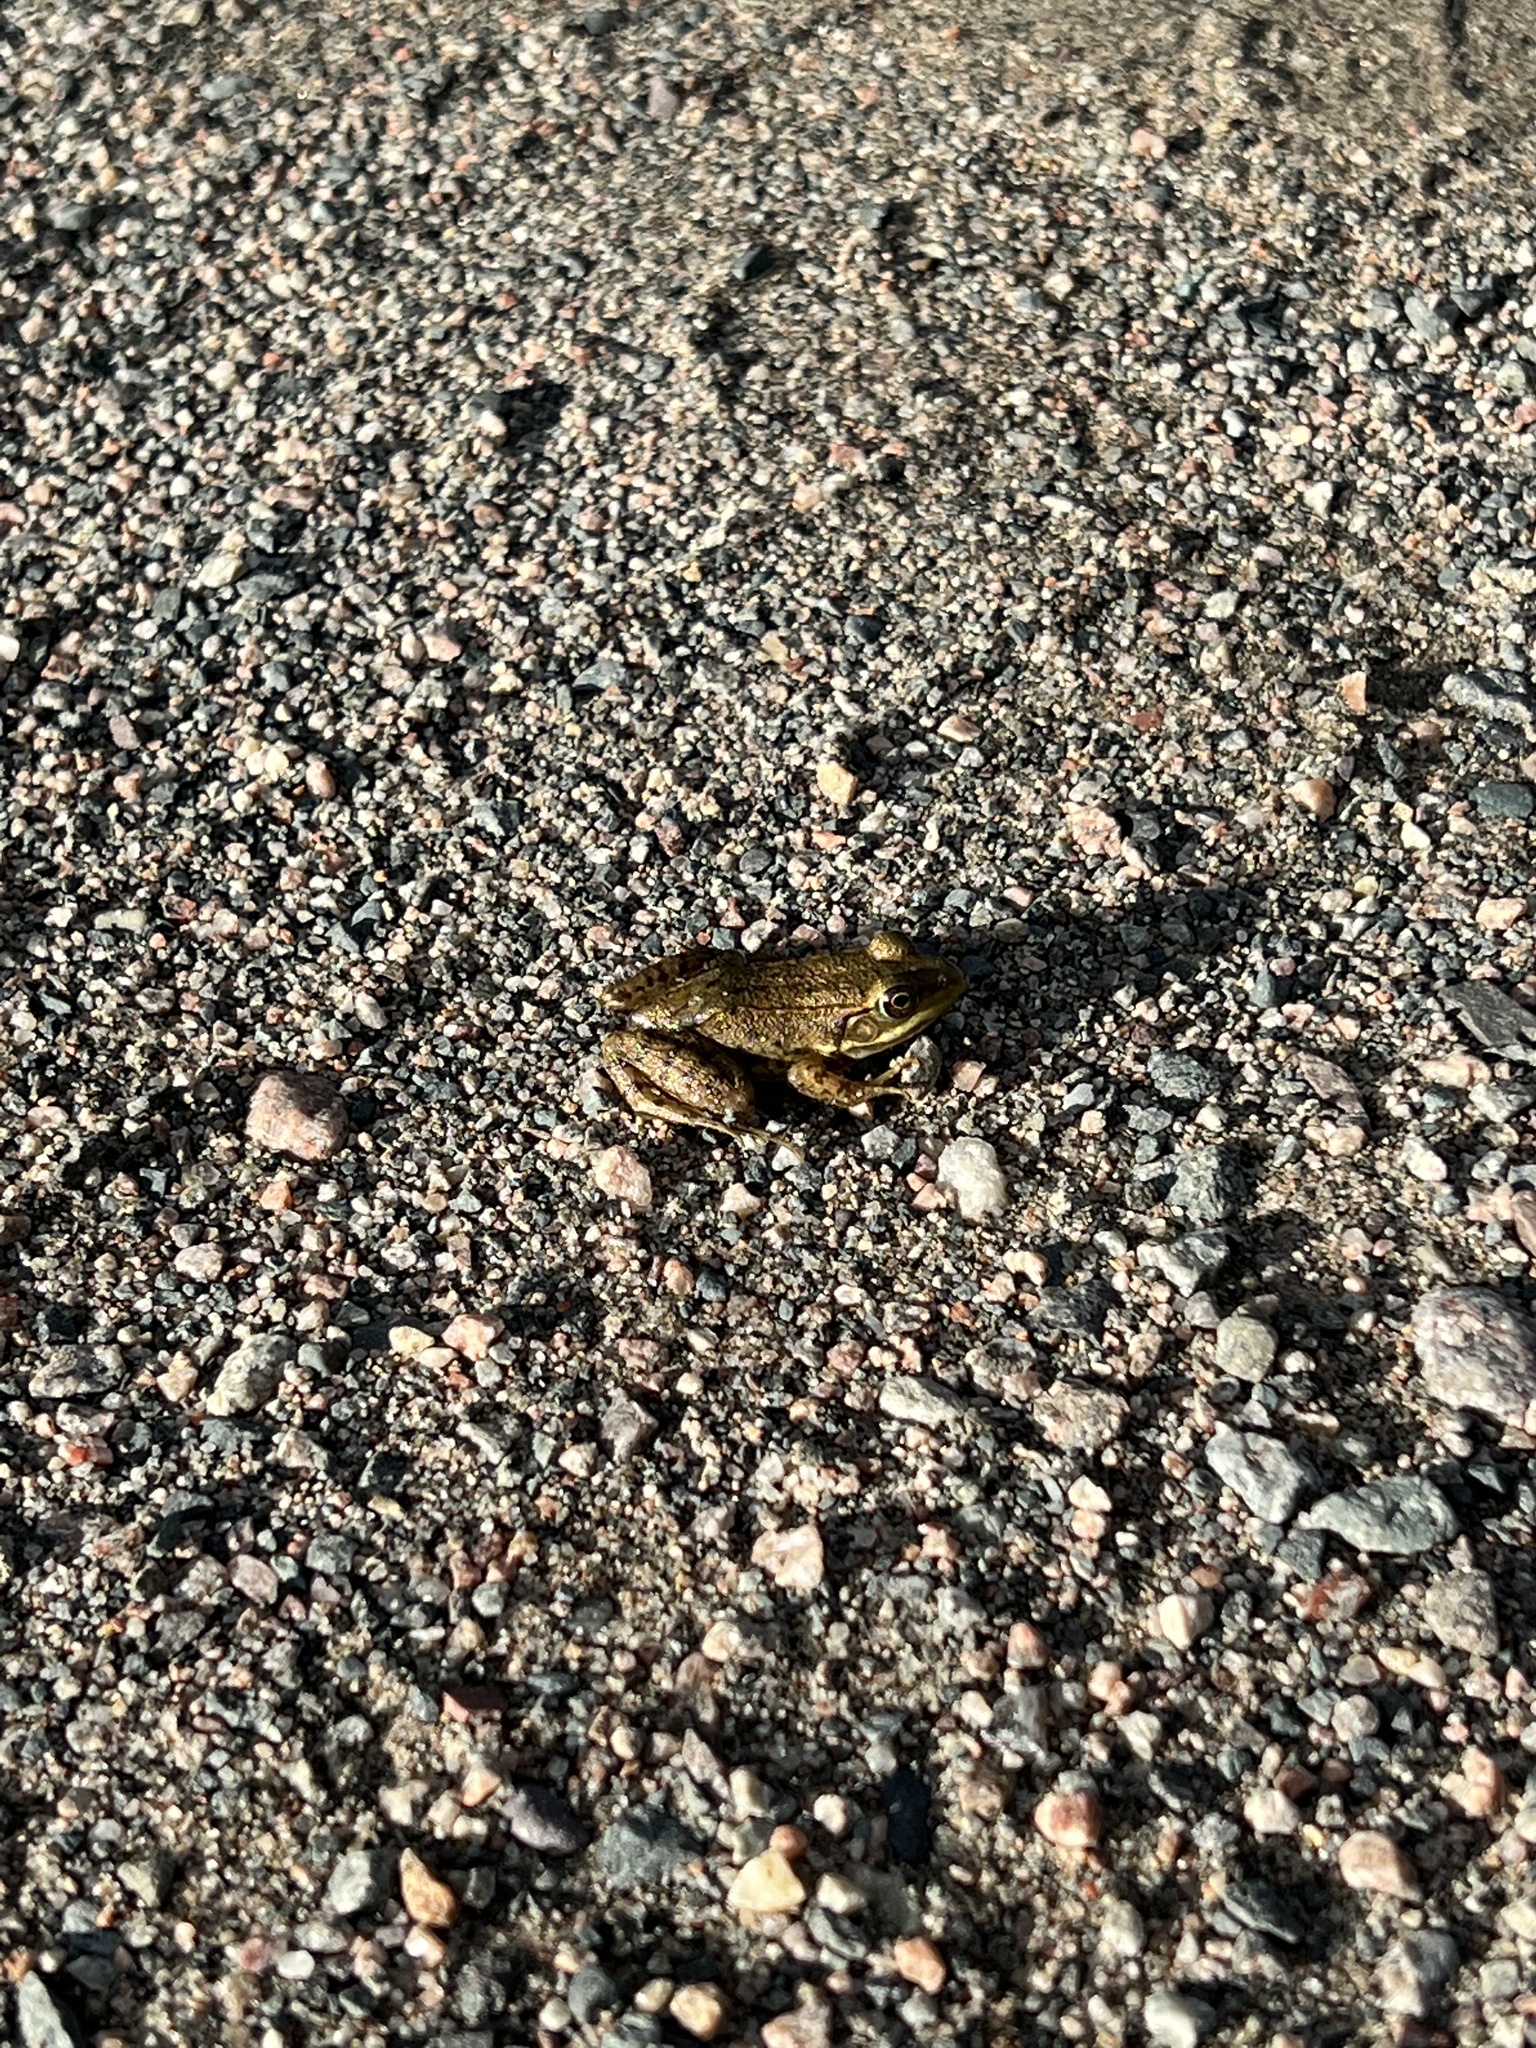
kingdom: Animalia
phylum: Chordata
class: Amphibia
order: Anura
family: Ranidae
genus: Lithobates
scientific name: Lithobates clamitans
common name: Green frog
